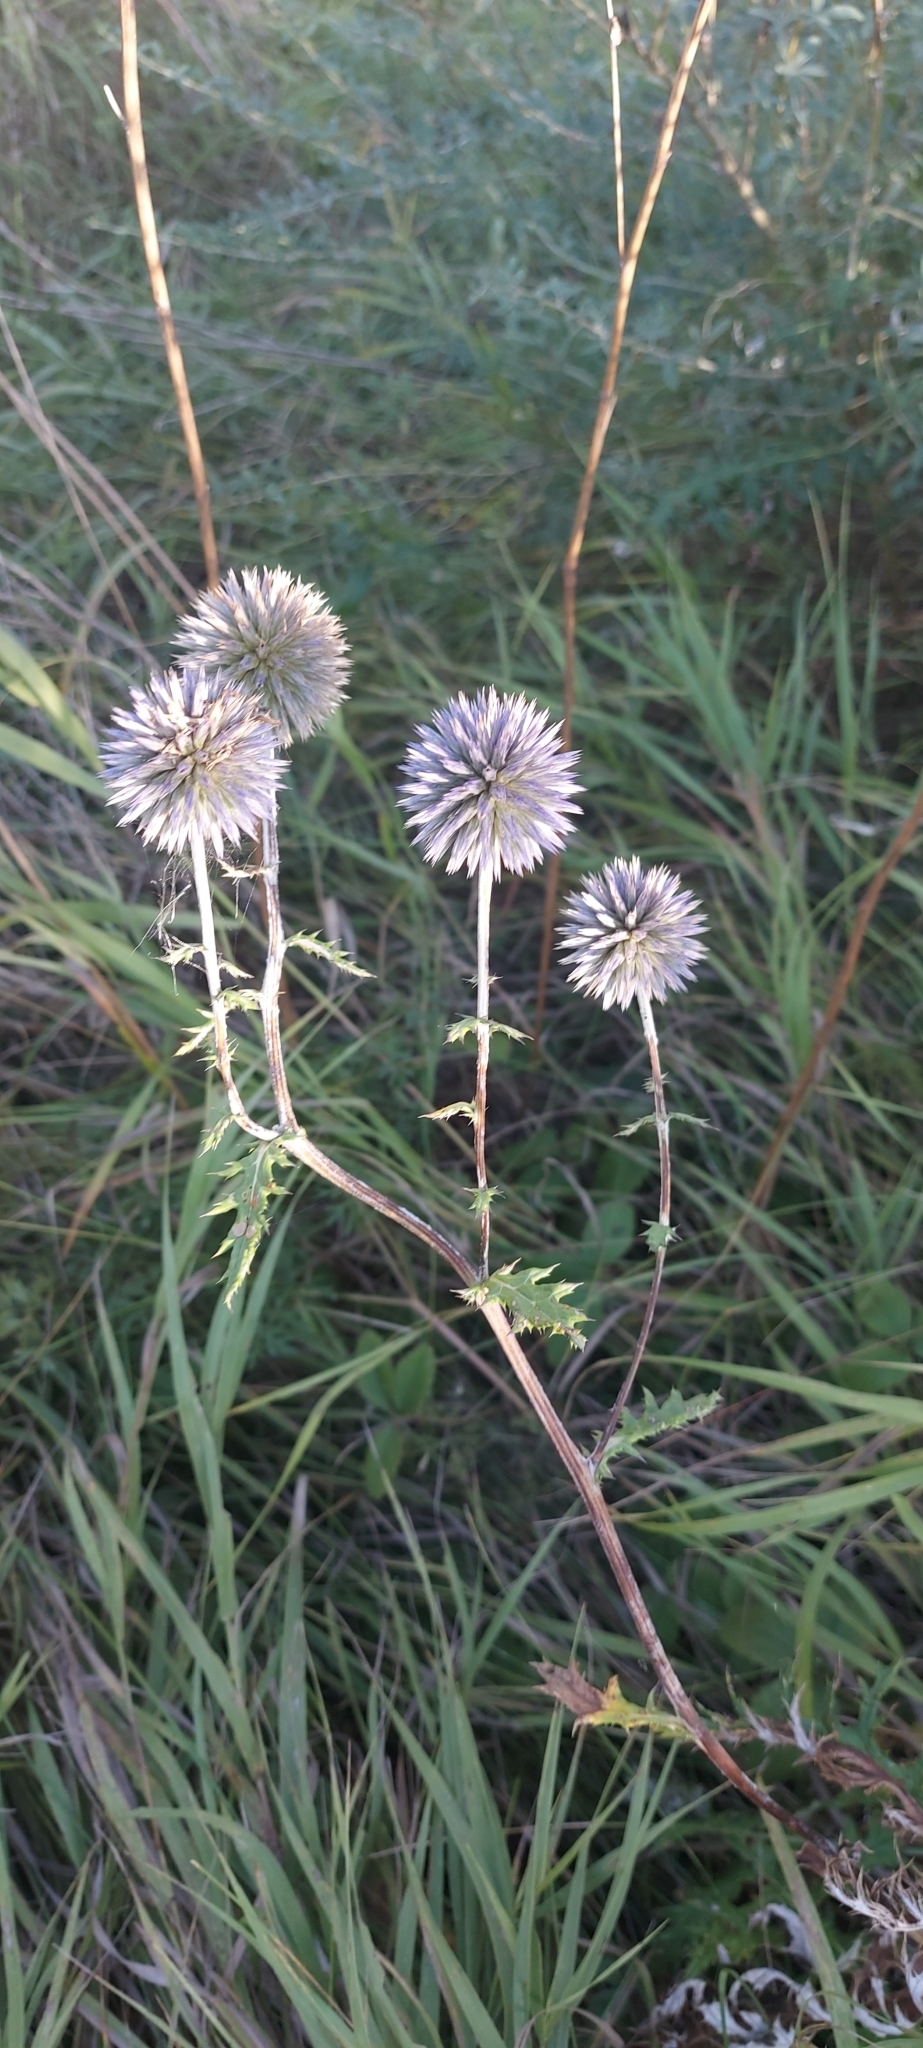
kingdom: Plantae
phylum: Tracheophyta
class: Magnoliopsida
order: Asterales
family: Asteraceae
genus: Echinops
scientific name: Echinops ritro
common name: Globe thistle
